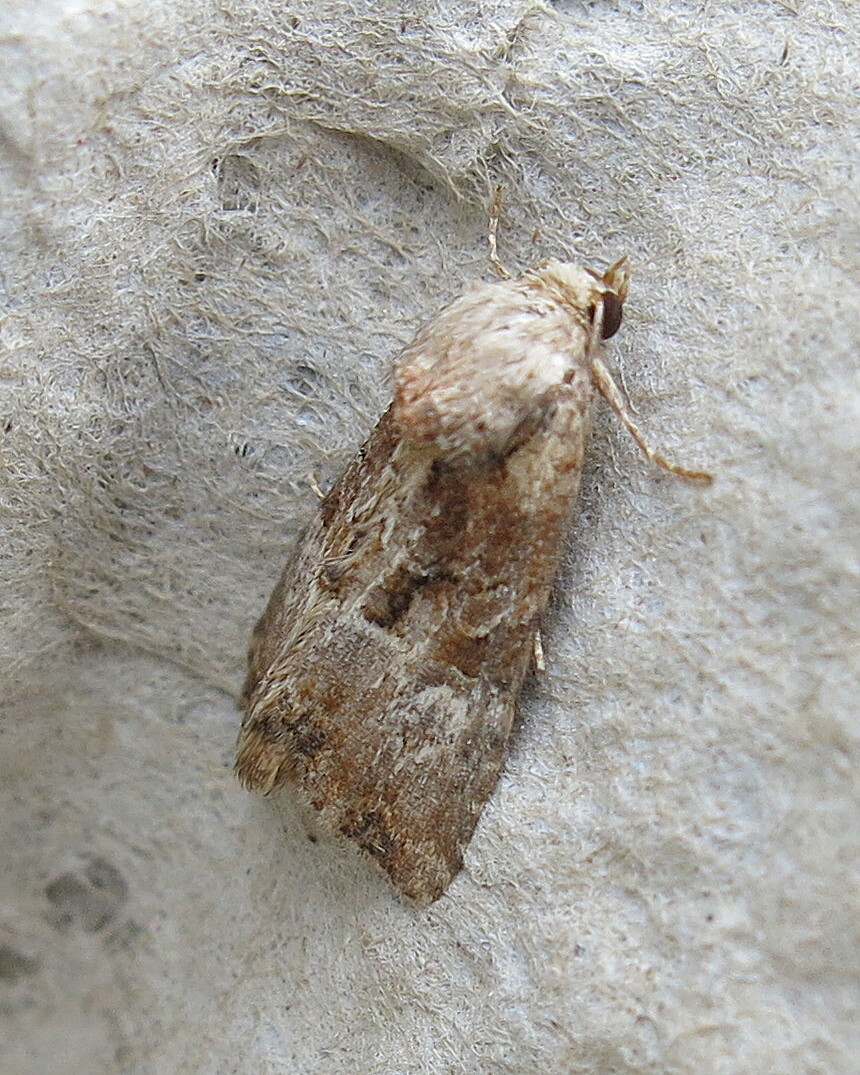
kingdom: Animalia
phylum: Arthropoda
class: Insecta
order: Lepidoptera
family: Noctuidae
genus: Mesoligia
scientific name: Mesoligia furuncula
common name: Cloaked minor
